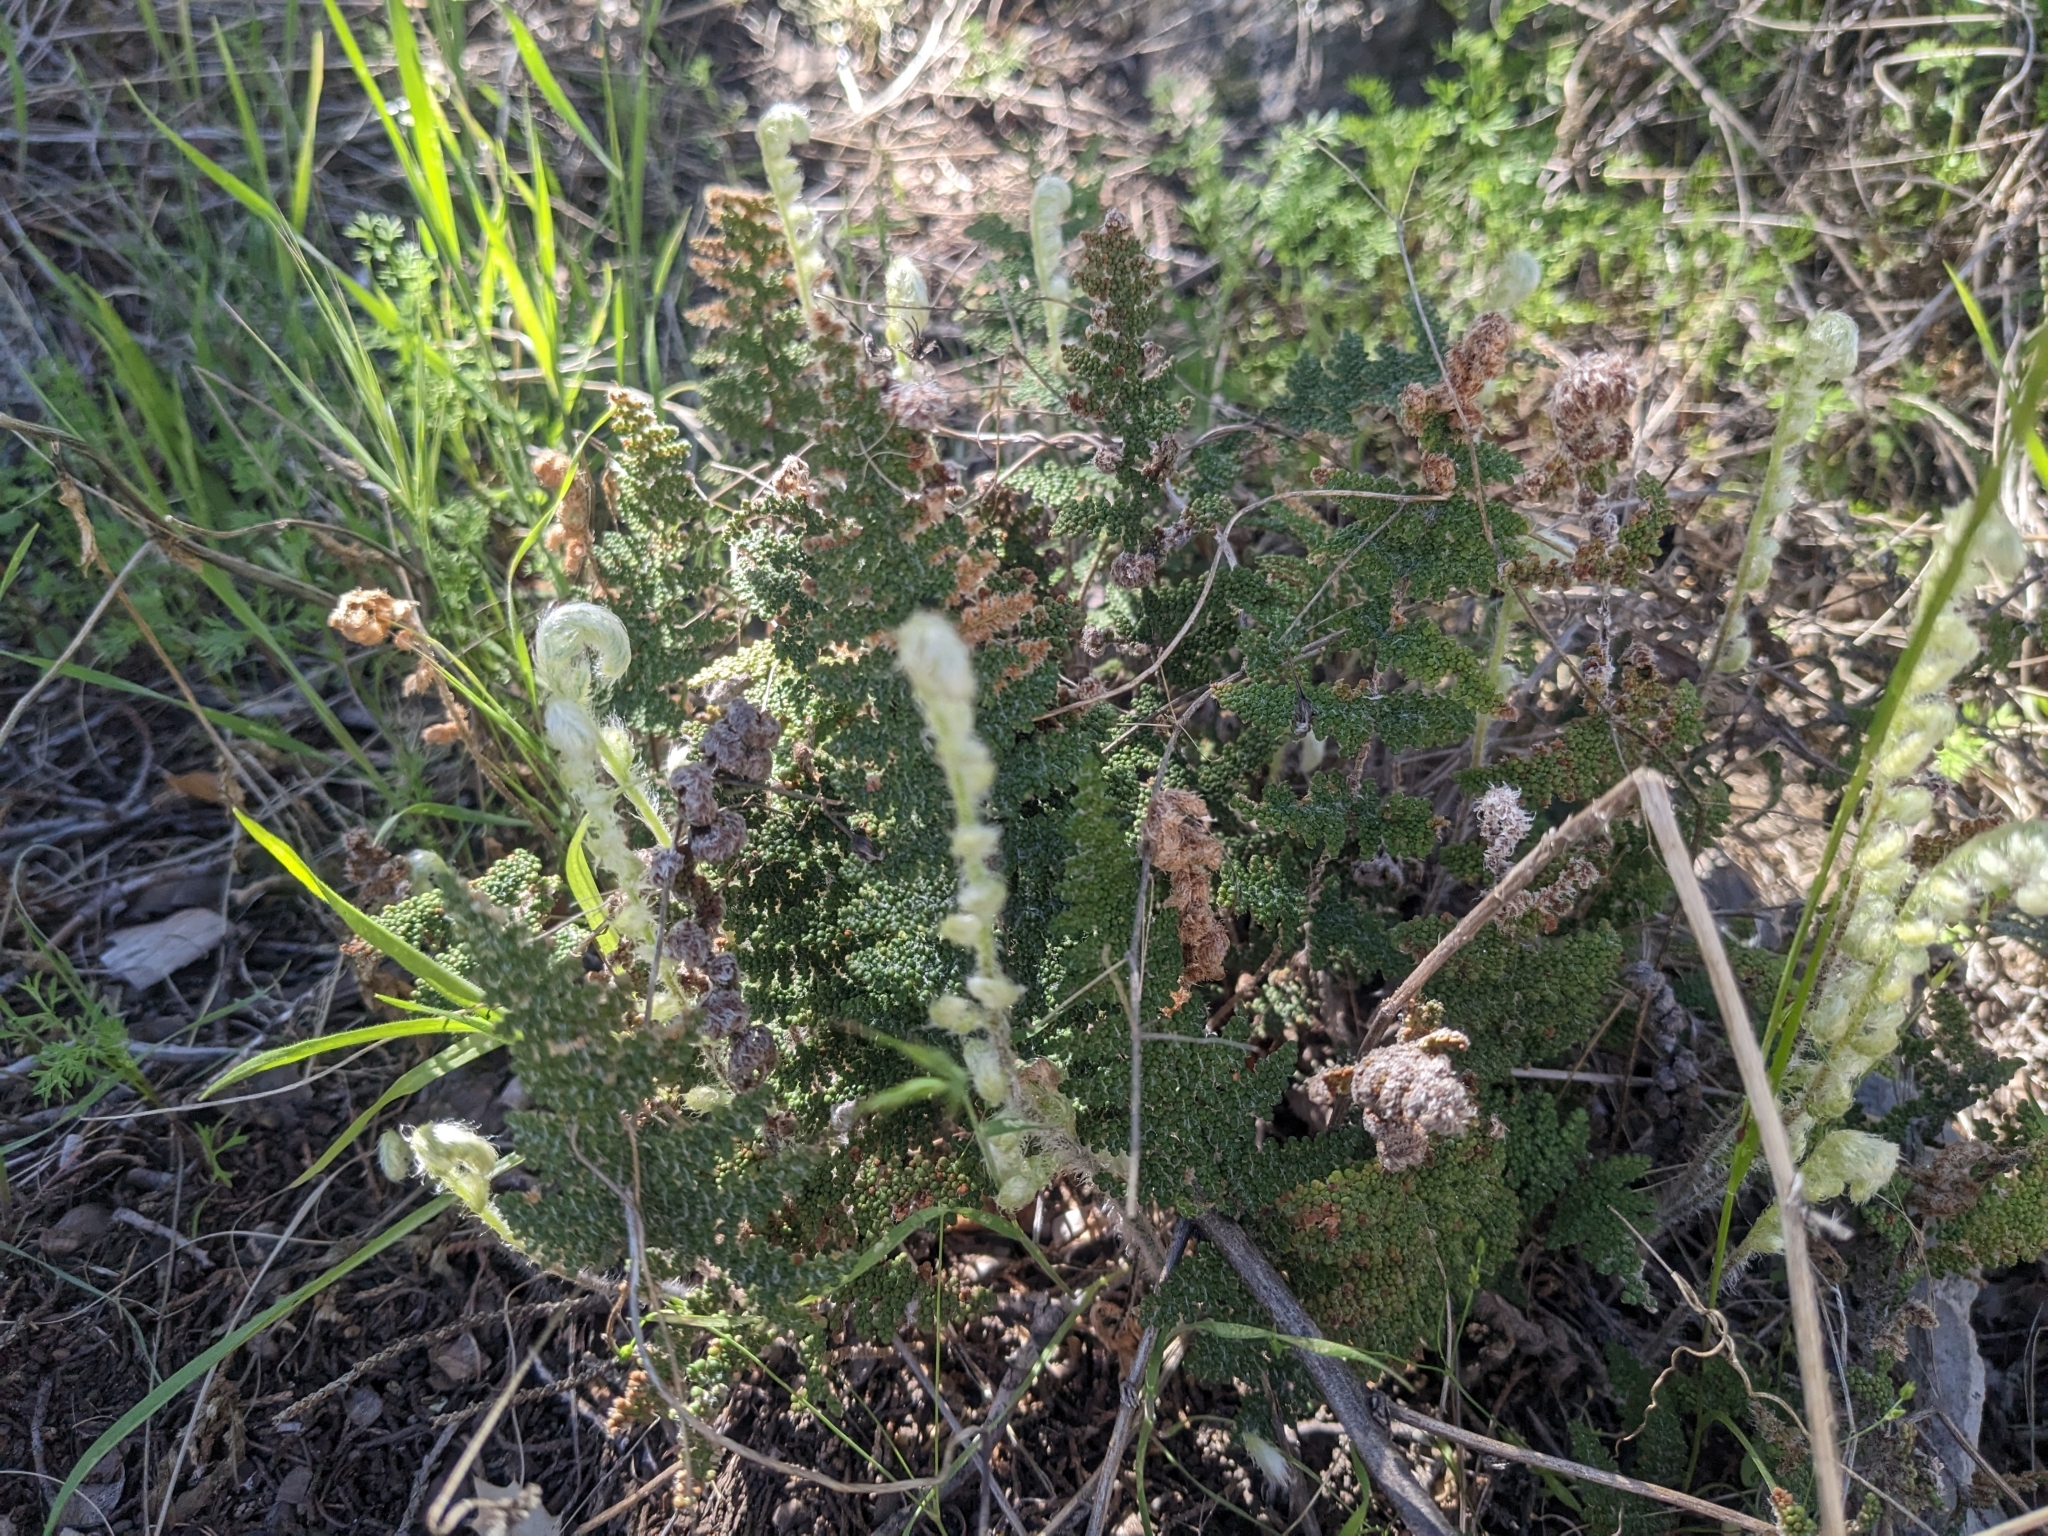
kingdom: Plantae
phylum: Tracheophyta
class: Polypodiopsida
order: Polypodiales
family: Pteridaceae
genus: Myriopteris
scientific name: Myriopteris covillei
